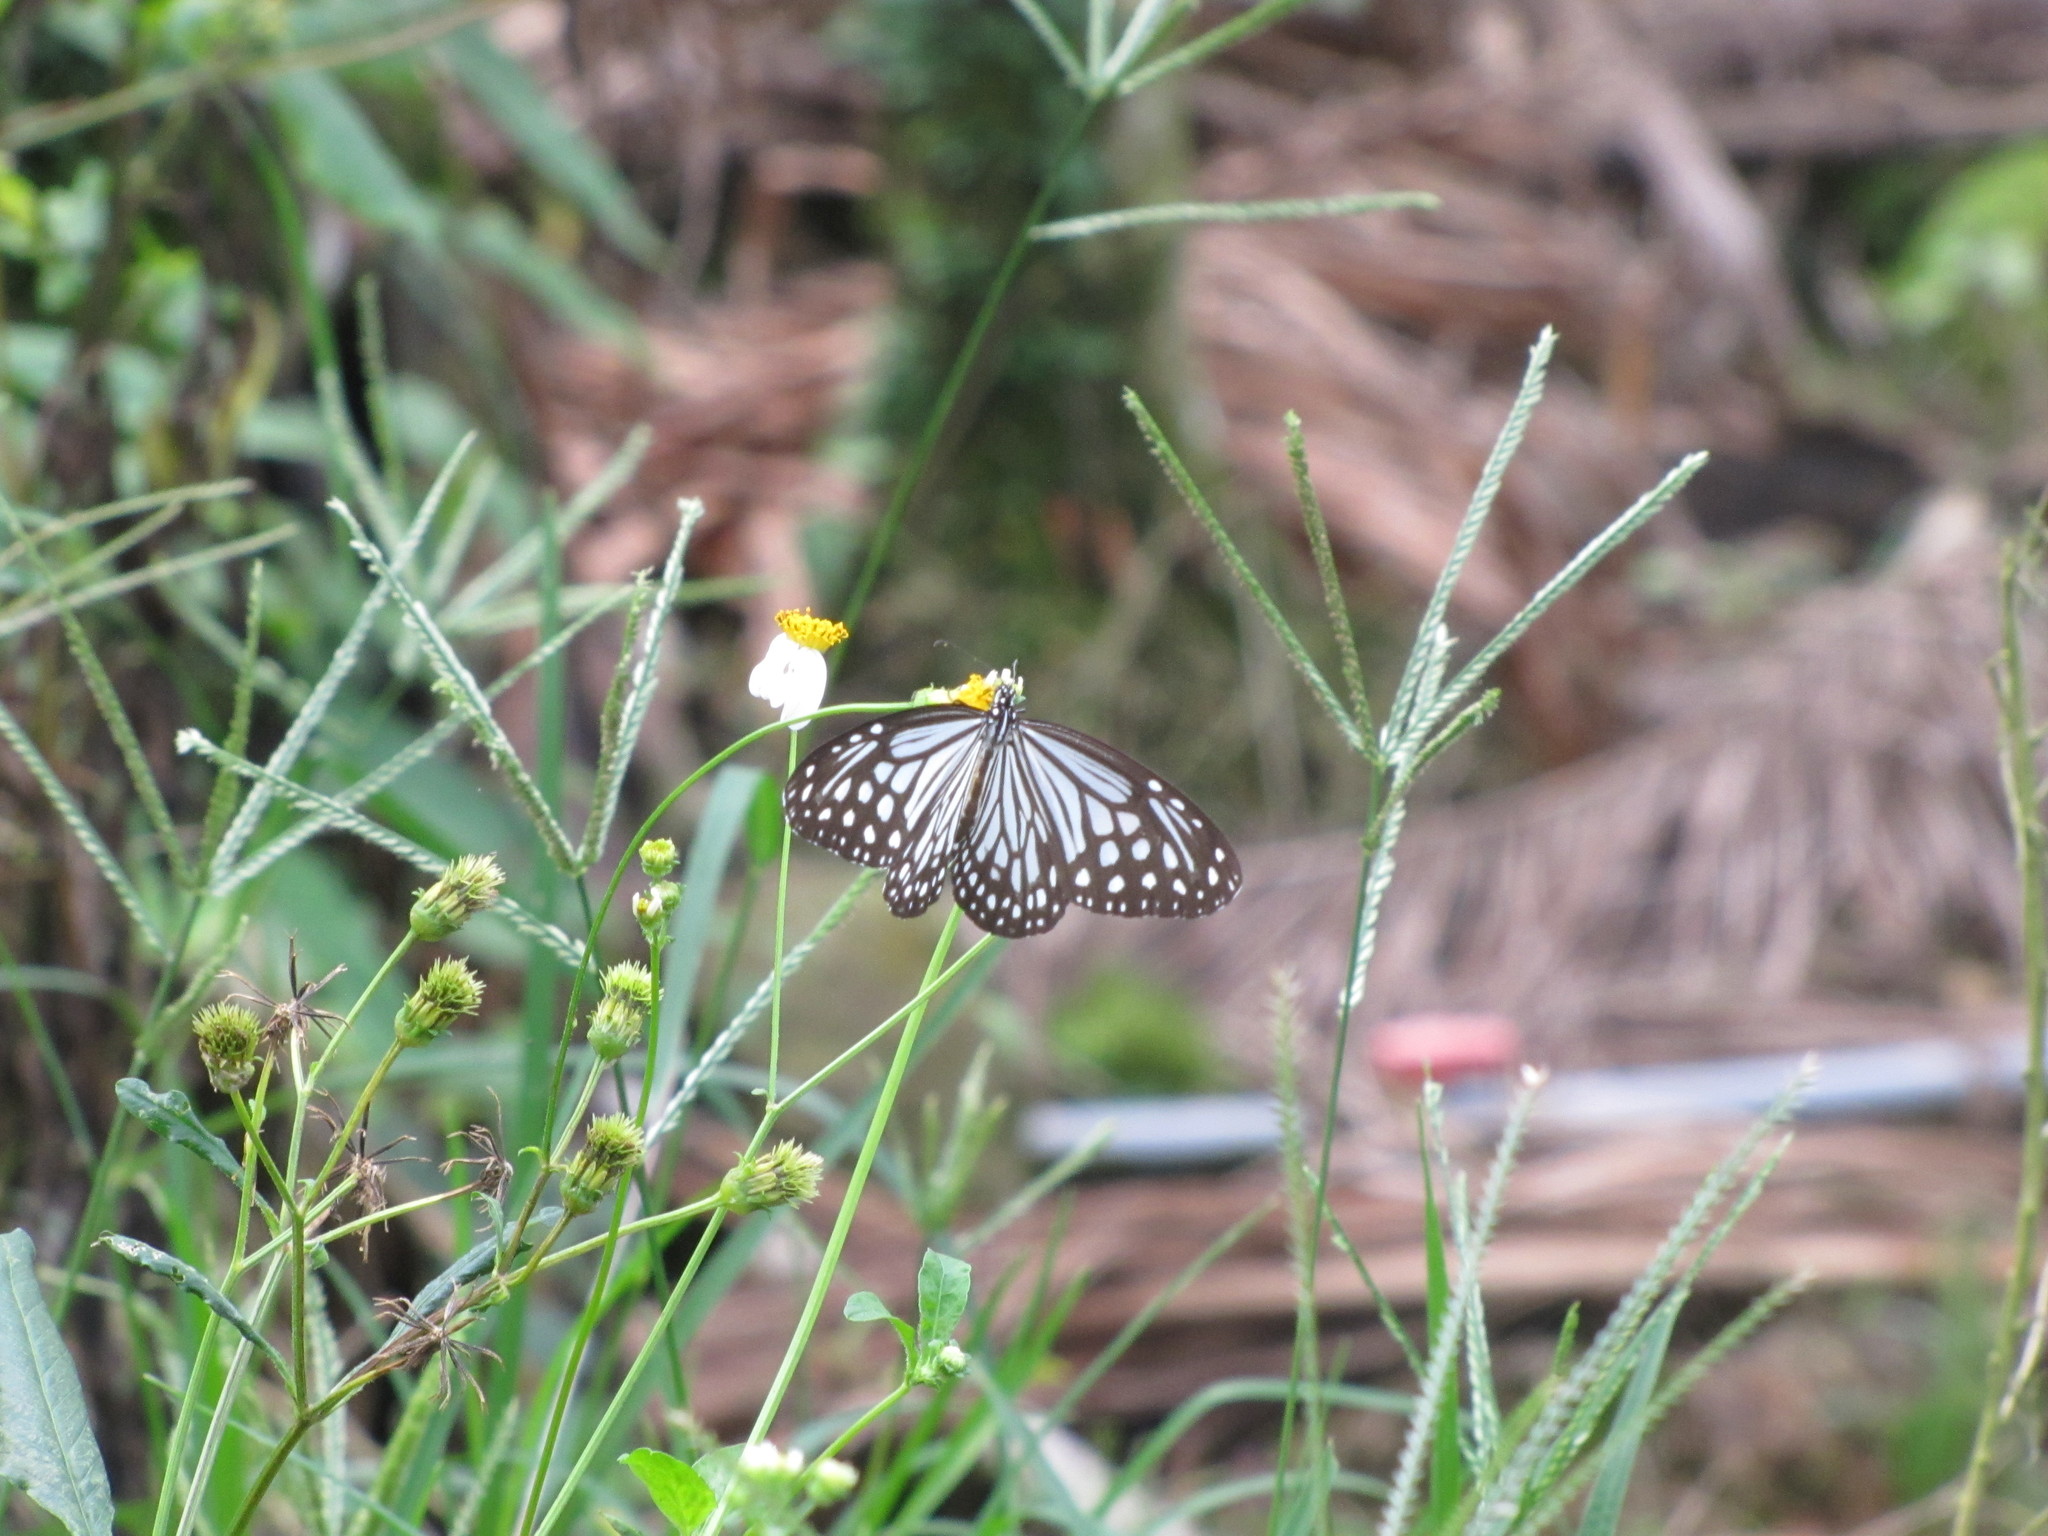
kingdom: Animalia
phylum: Arthropoda
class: Insecta
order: Lepidoptera
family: Nymphalidae
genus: Parantica
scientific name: Parantica aglea
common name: Glassy tiger
